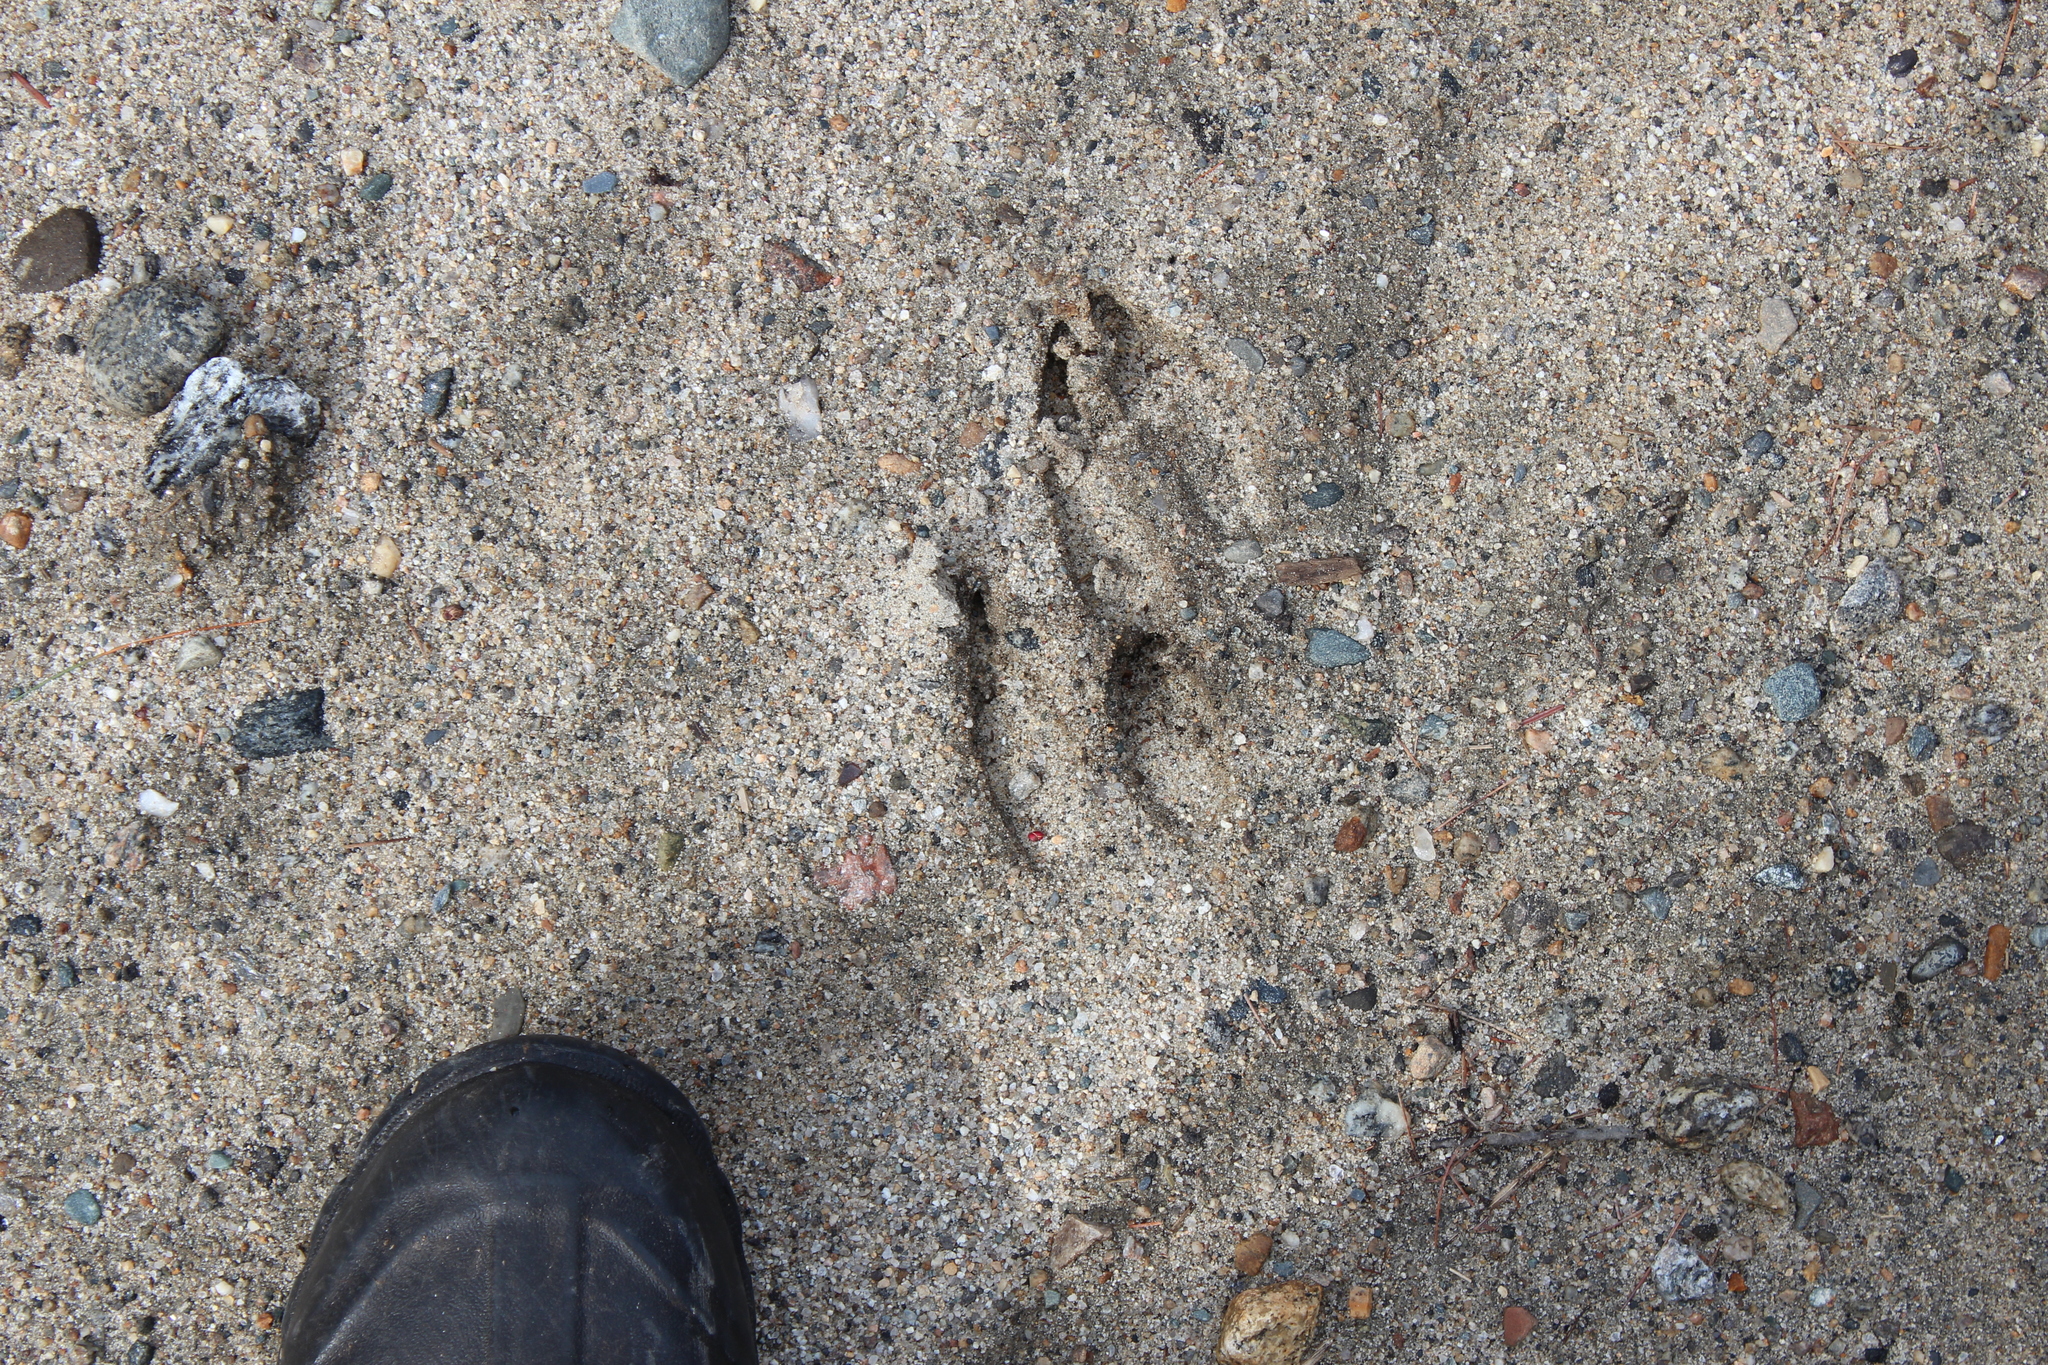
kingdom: Animalia
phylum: Chordata
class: Mammalia
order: Artiodactyla
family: Cervidae
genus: Odocoileus
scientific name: Odocoileus virginianus
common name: White-tailed deer
